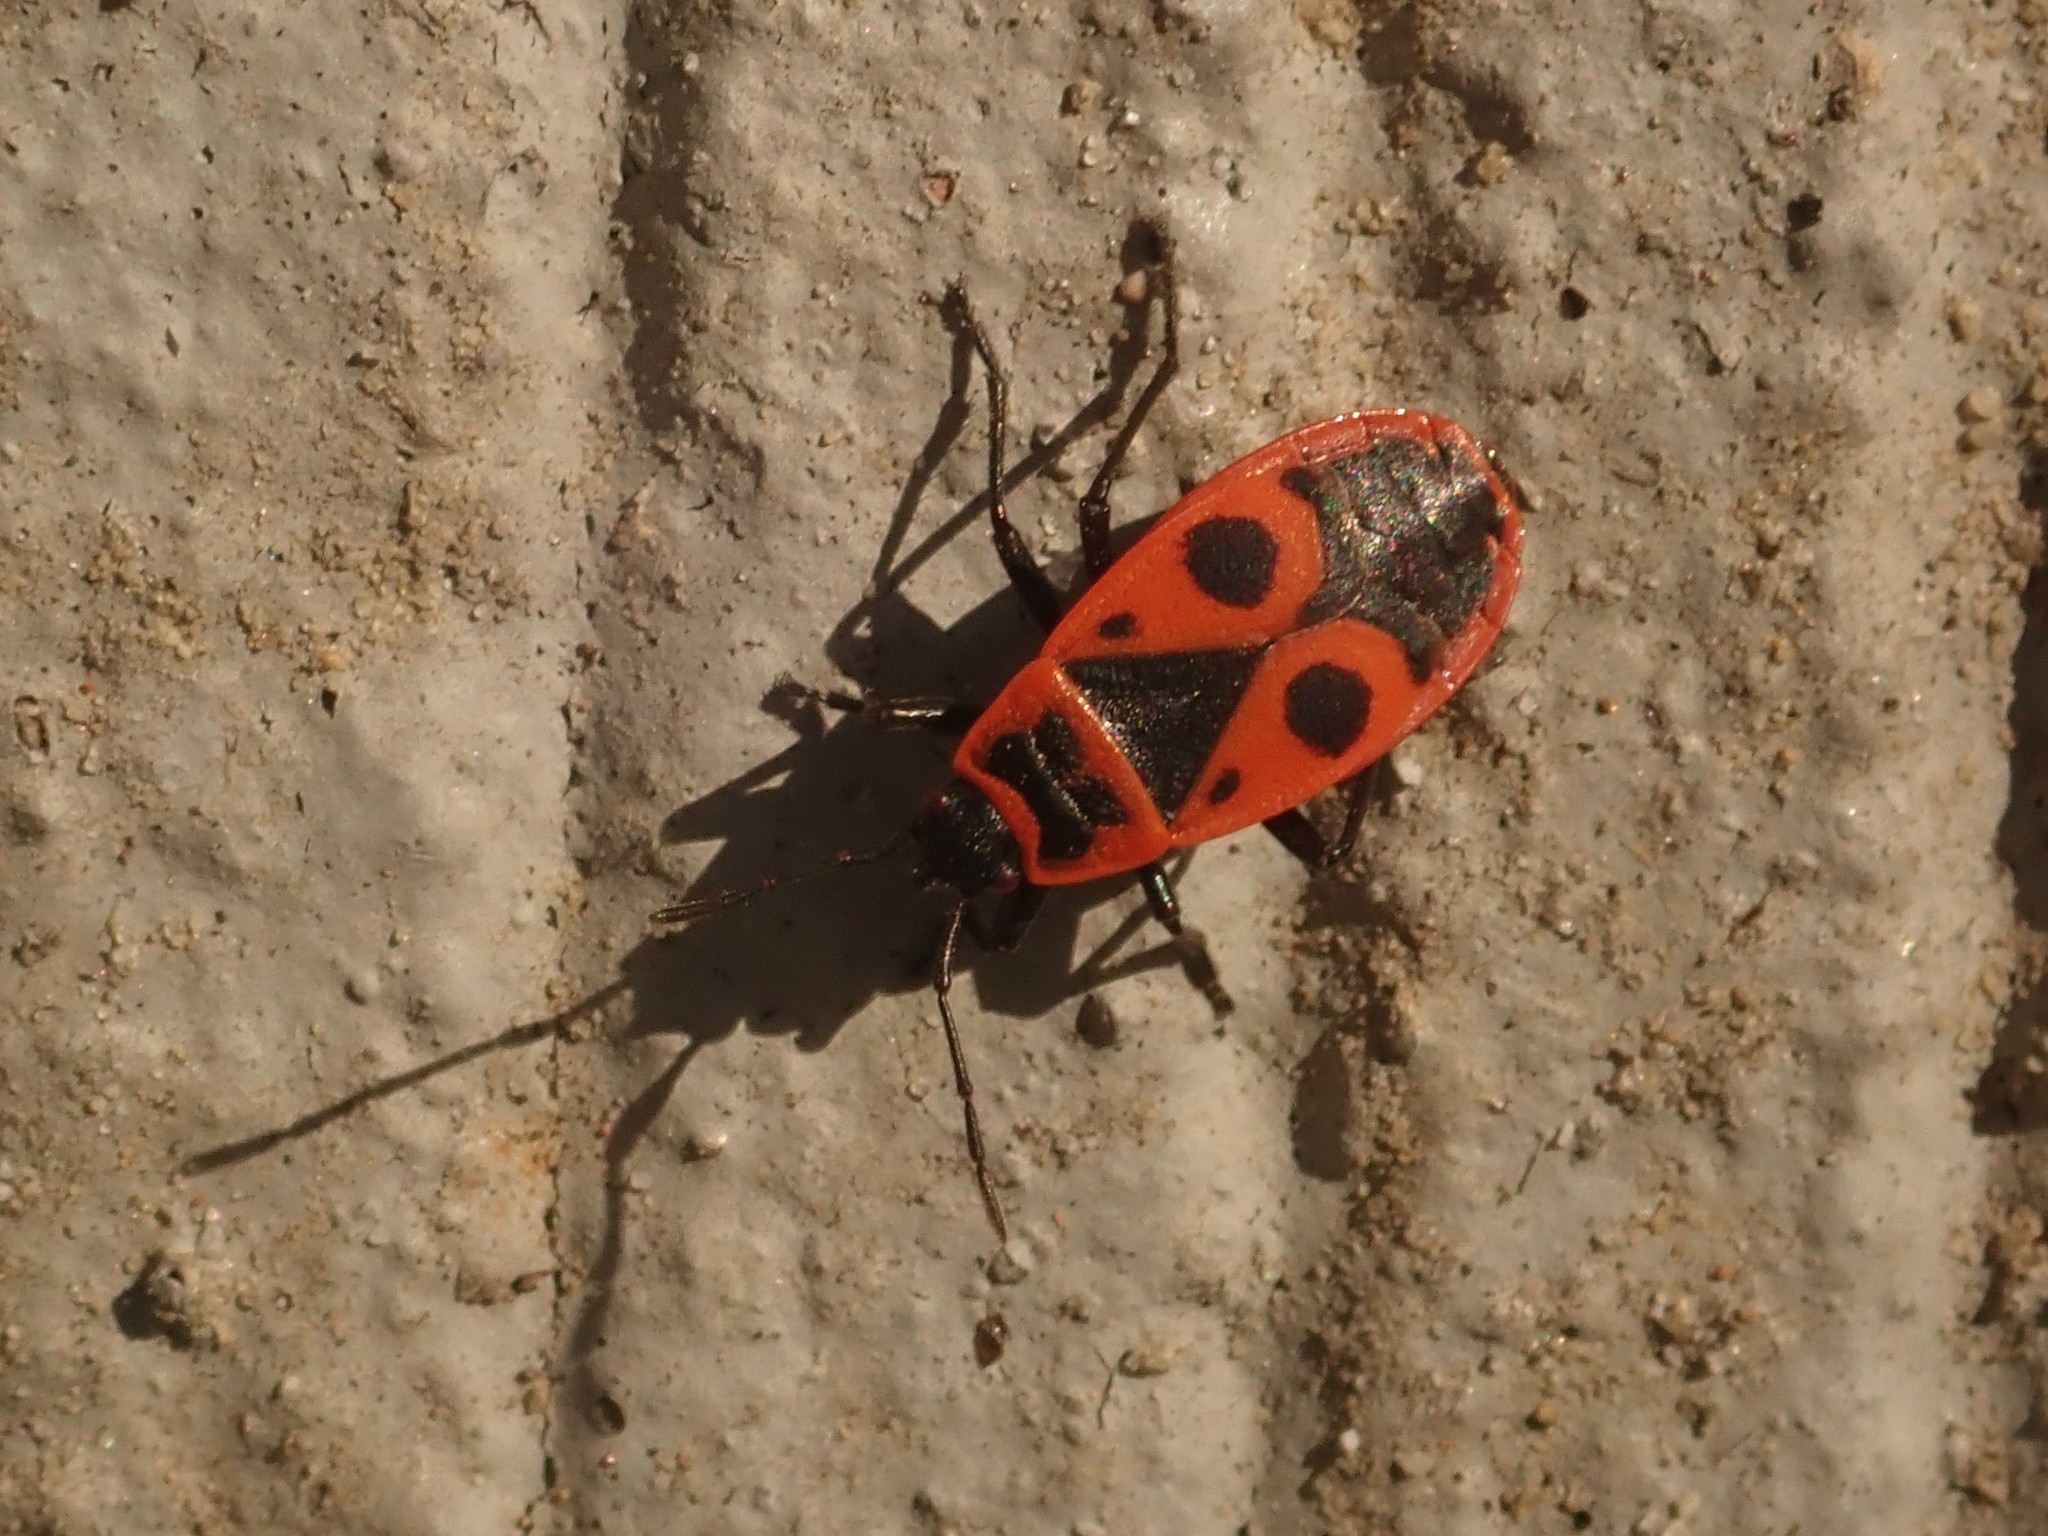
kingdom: Animalia
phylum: Arthropoda
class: Insecta
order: Hemiptera
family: Pyrrhocoridae
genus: Pyrrhocoris
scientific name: Pyrrhocoris apterus
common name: Firebug
